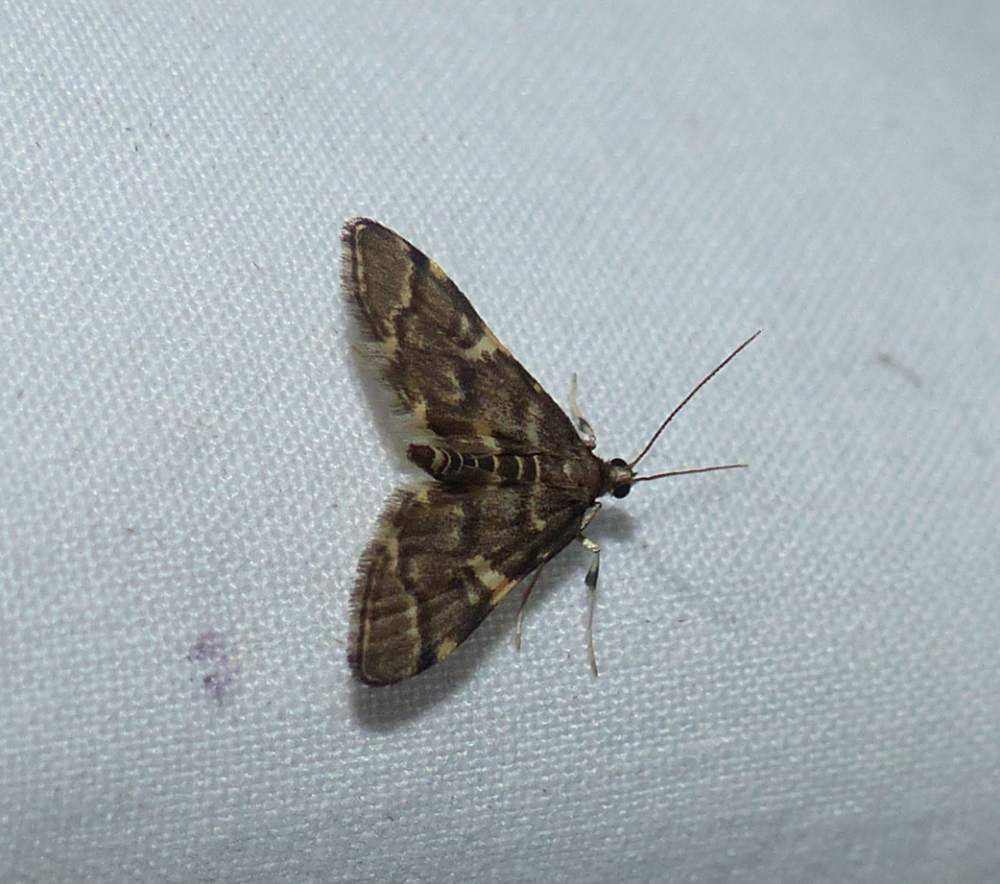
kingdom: Animalia
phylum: Arthropoda
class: Insecta
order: Lepidoptera
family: Crambidae
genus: Anageshna
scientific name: Anageshna primordialis
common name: Yellow-spotted webworm moth
